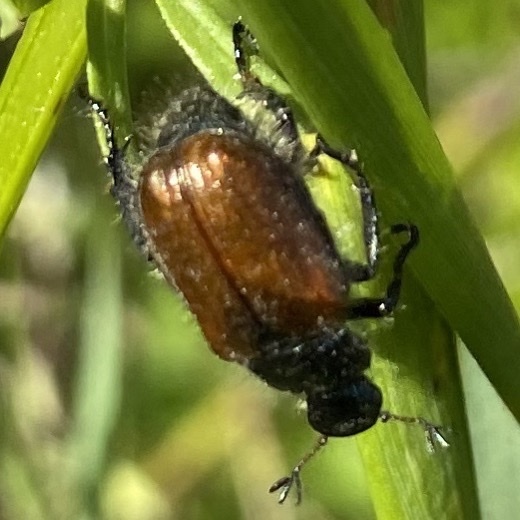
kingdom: Animalia
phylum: Arthropoda
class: Insecta
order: Coleoptera
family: Scarabaeidae
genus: Phyllopertha
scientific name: Phyllopertha horticola
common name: Garden chafer
